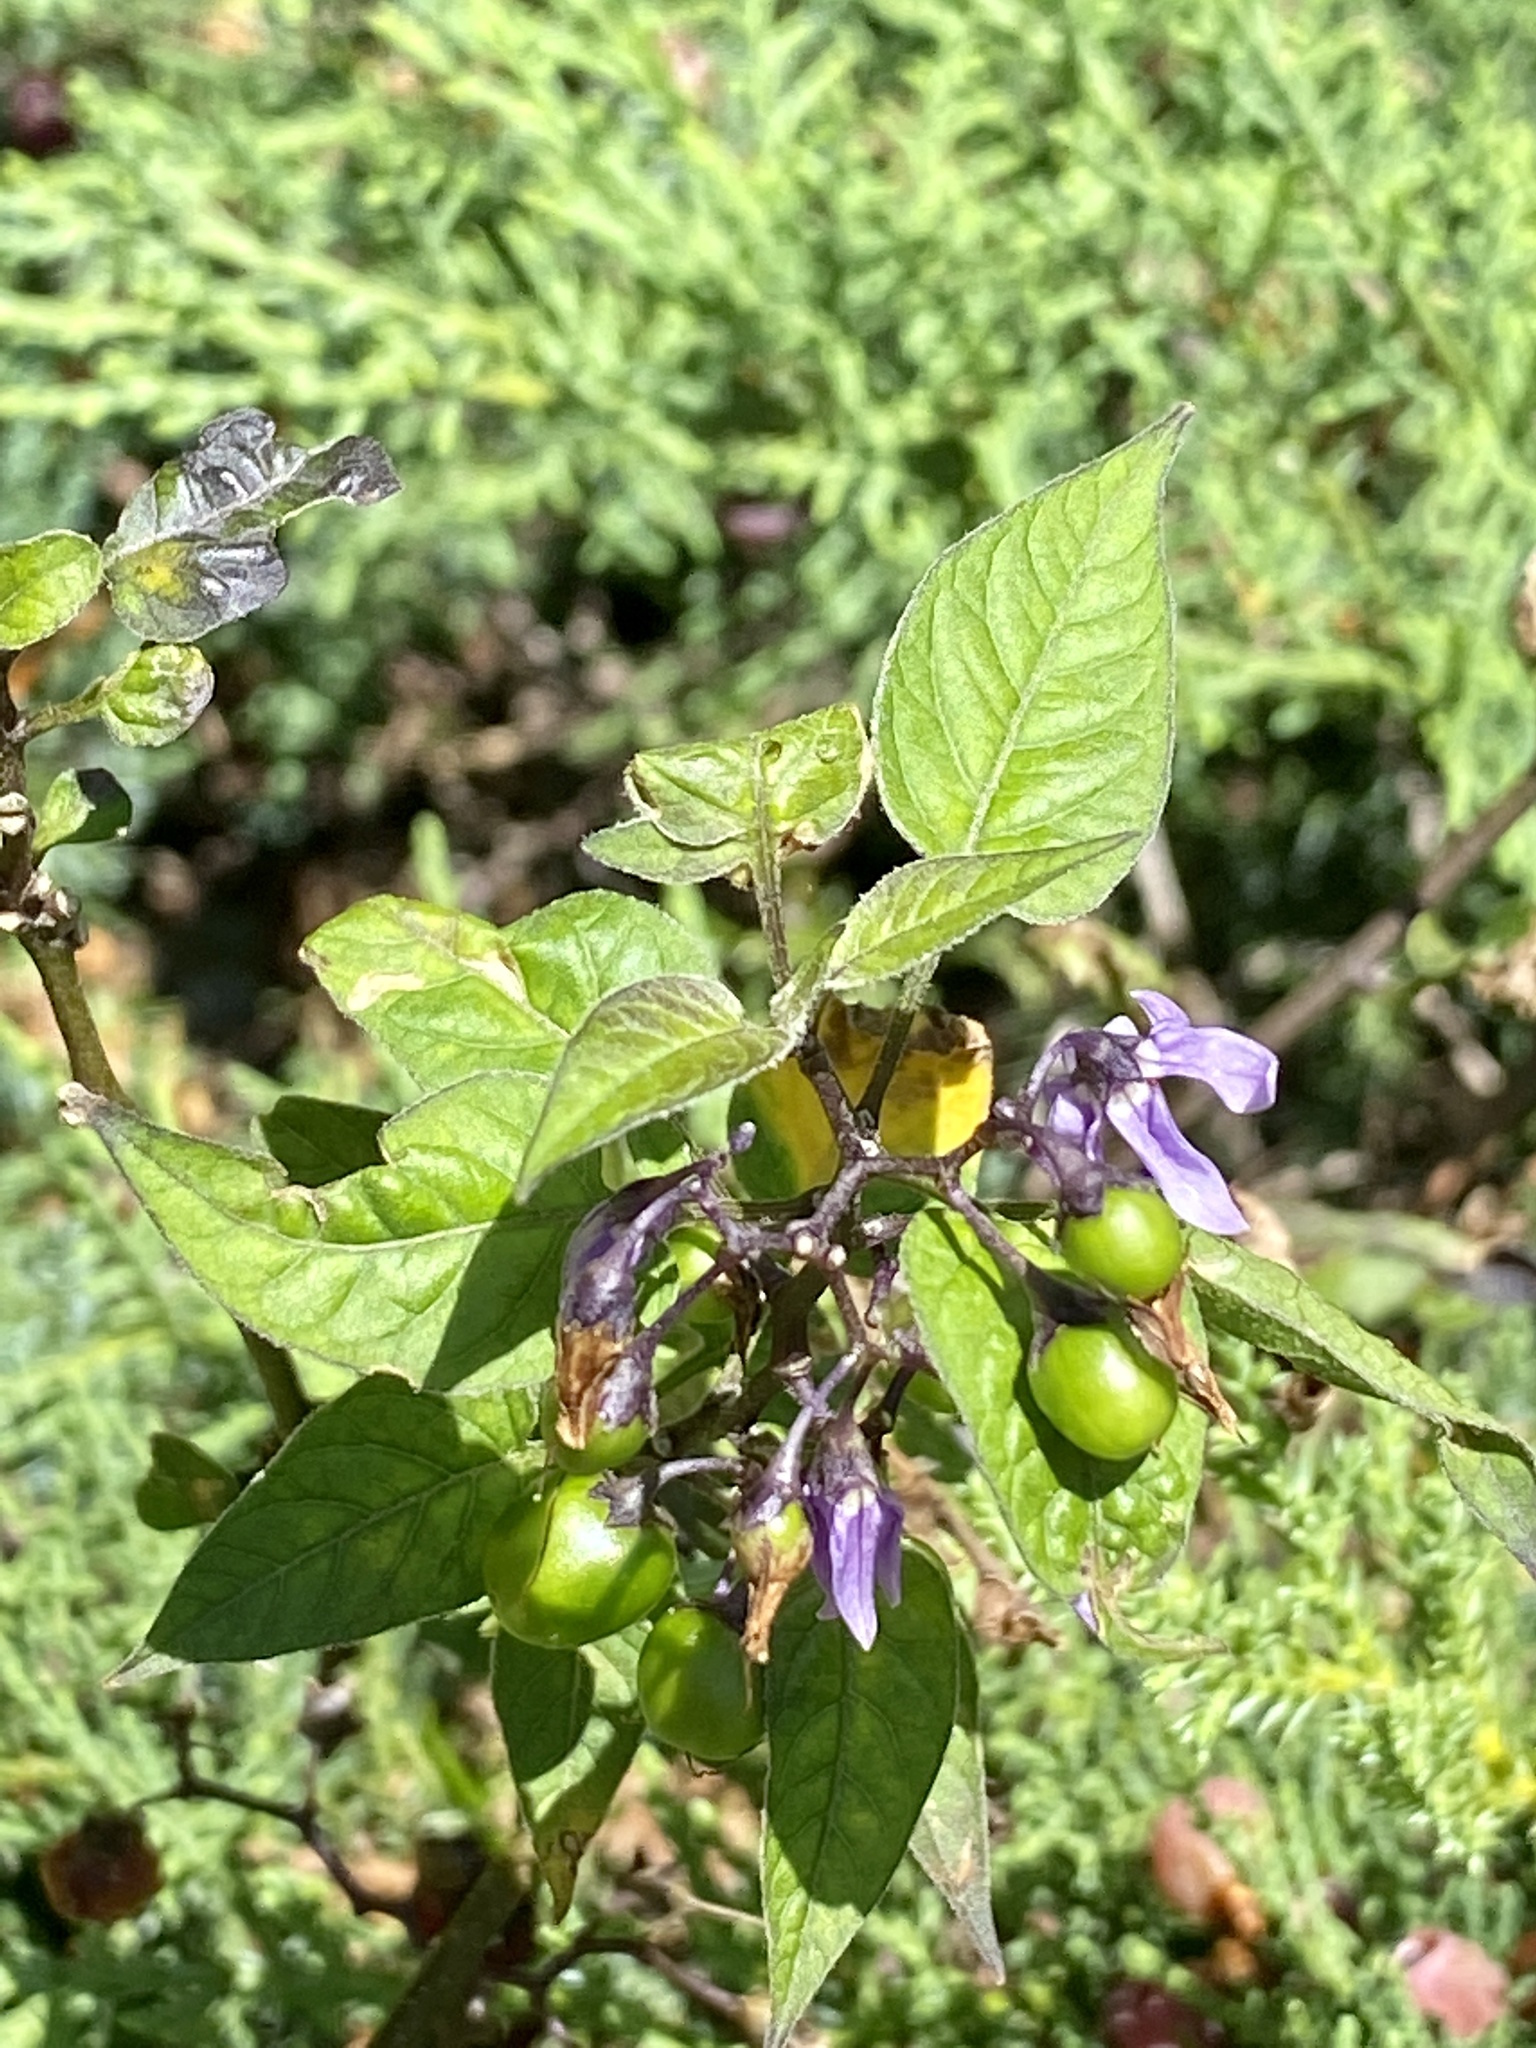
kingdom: Plantae
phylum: Tracheophyta
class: Magnoliopsida
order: Solanales
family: Solanaceae
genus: Solanum
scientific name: Solanum dulcamara
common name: Climbing nightshade
